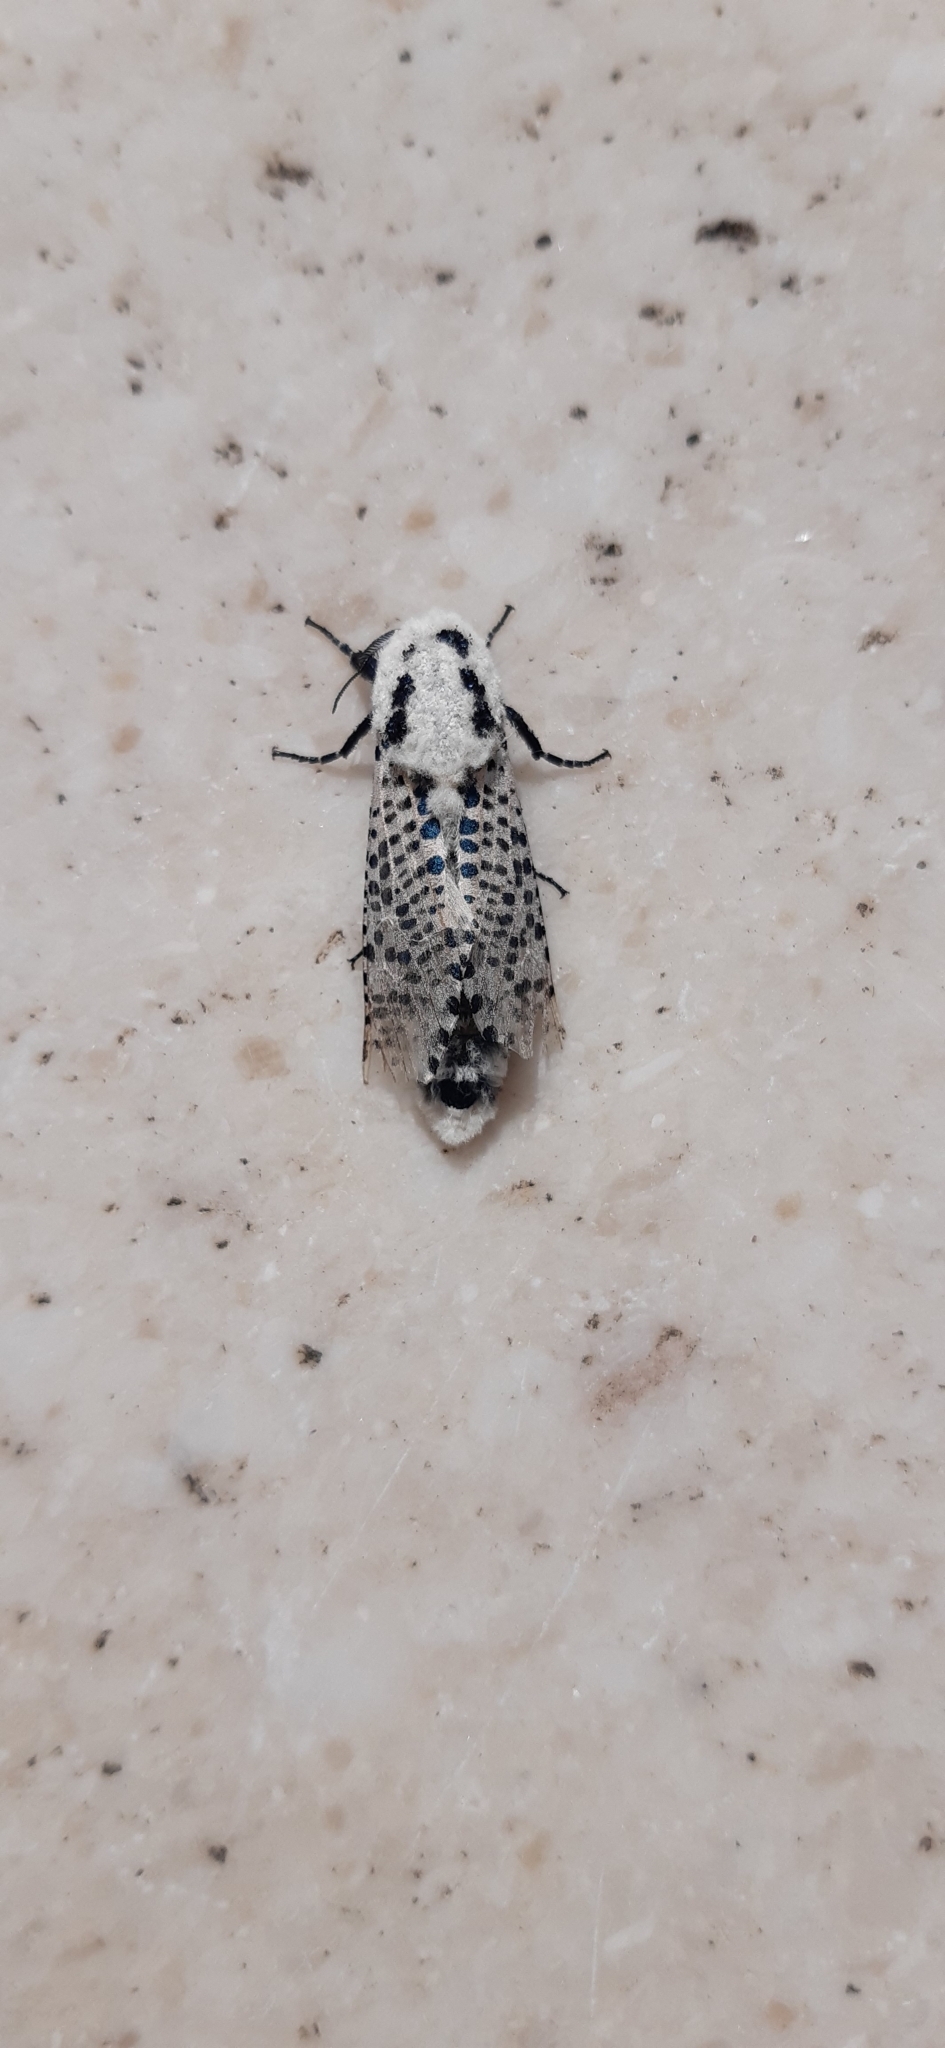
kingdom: Animalia
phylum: Arthropoda
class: Insecta
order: Lepidoptera
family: Cossidae
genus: Zeuzera
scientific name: Zeuzera pyrina
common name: Leopard moth
